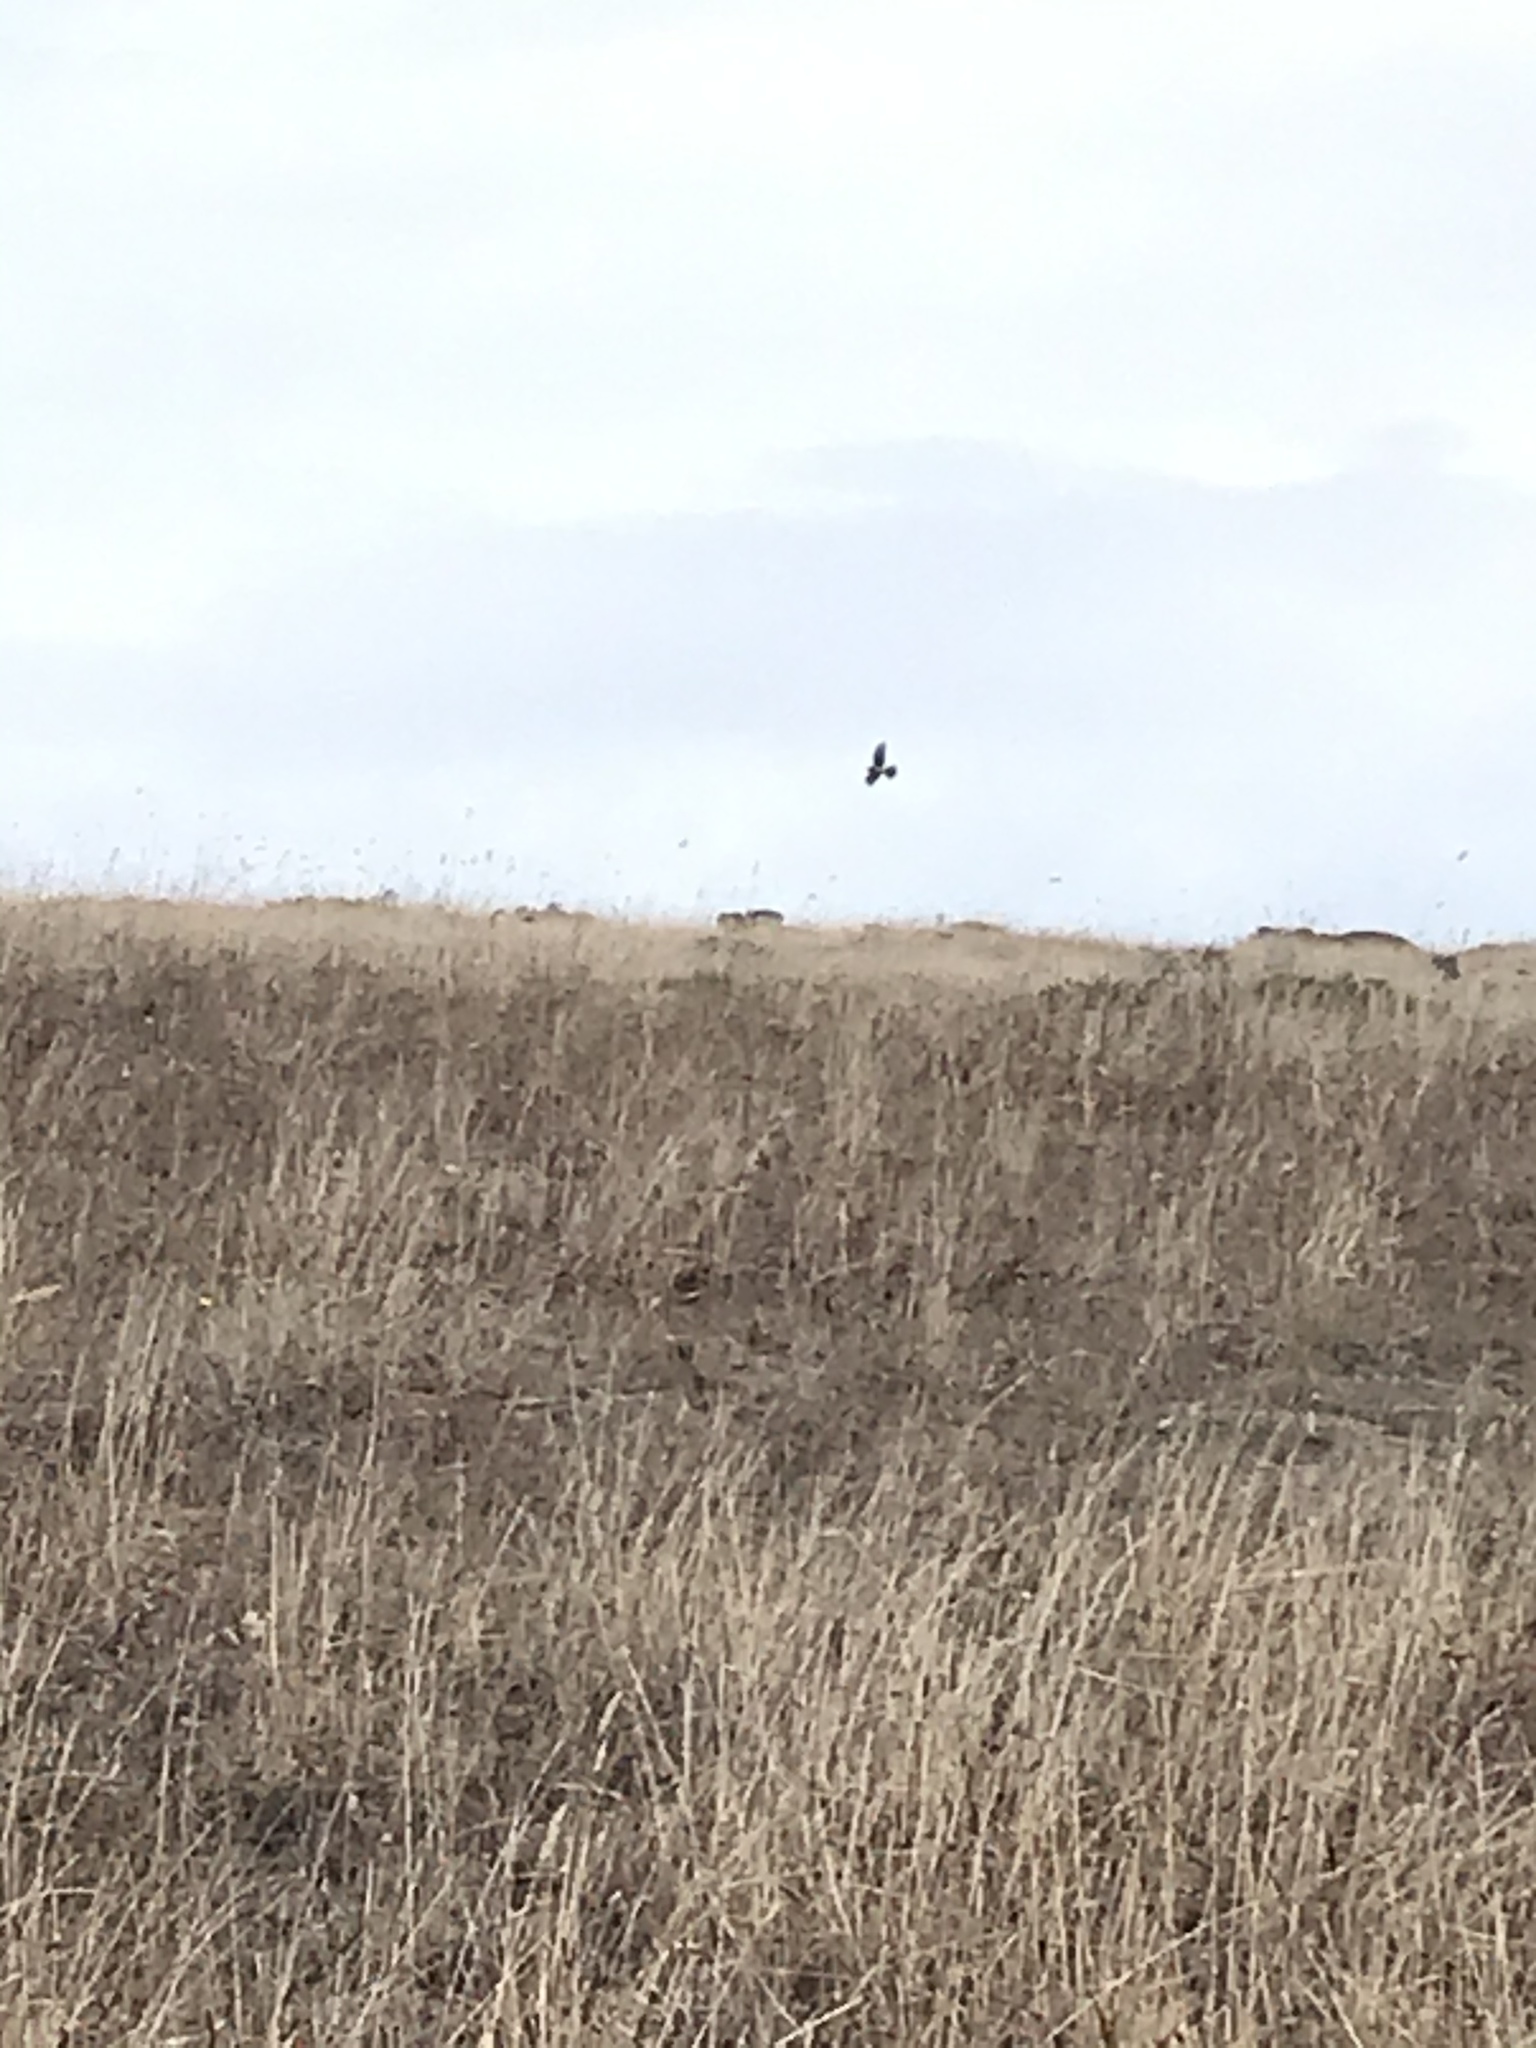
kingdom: Animalia
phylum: Chordata
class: Aves
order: Accipitriformes
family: Accipitridae
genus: Circus
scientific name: Circus cyaneus
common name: Hen harrier
